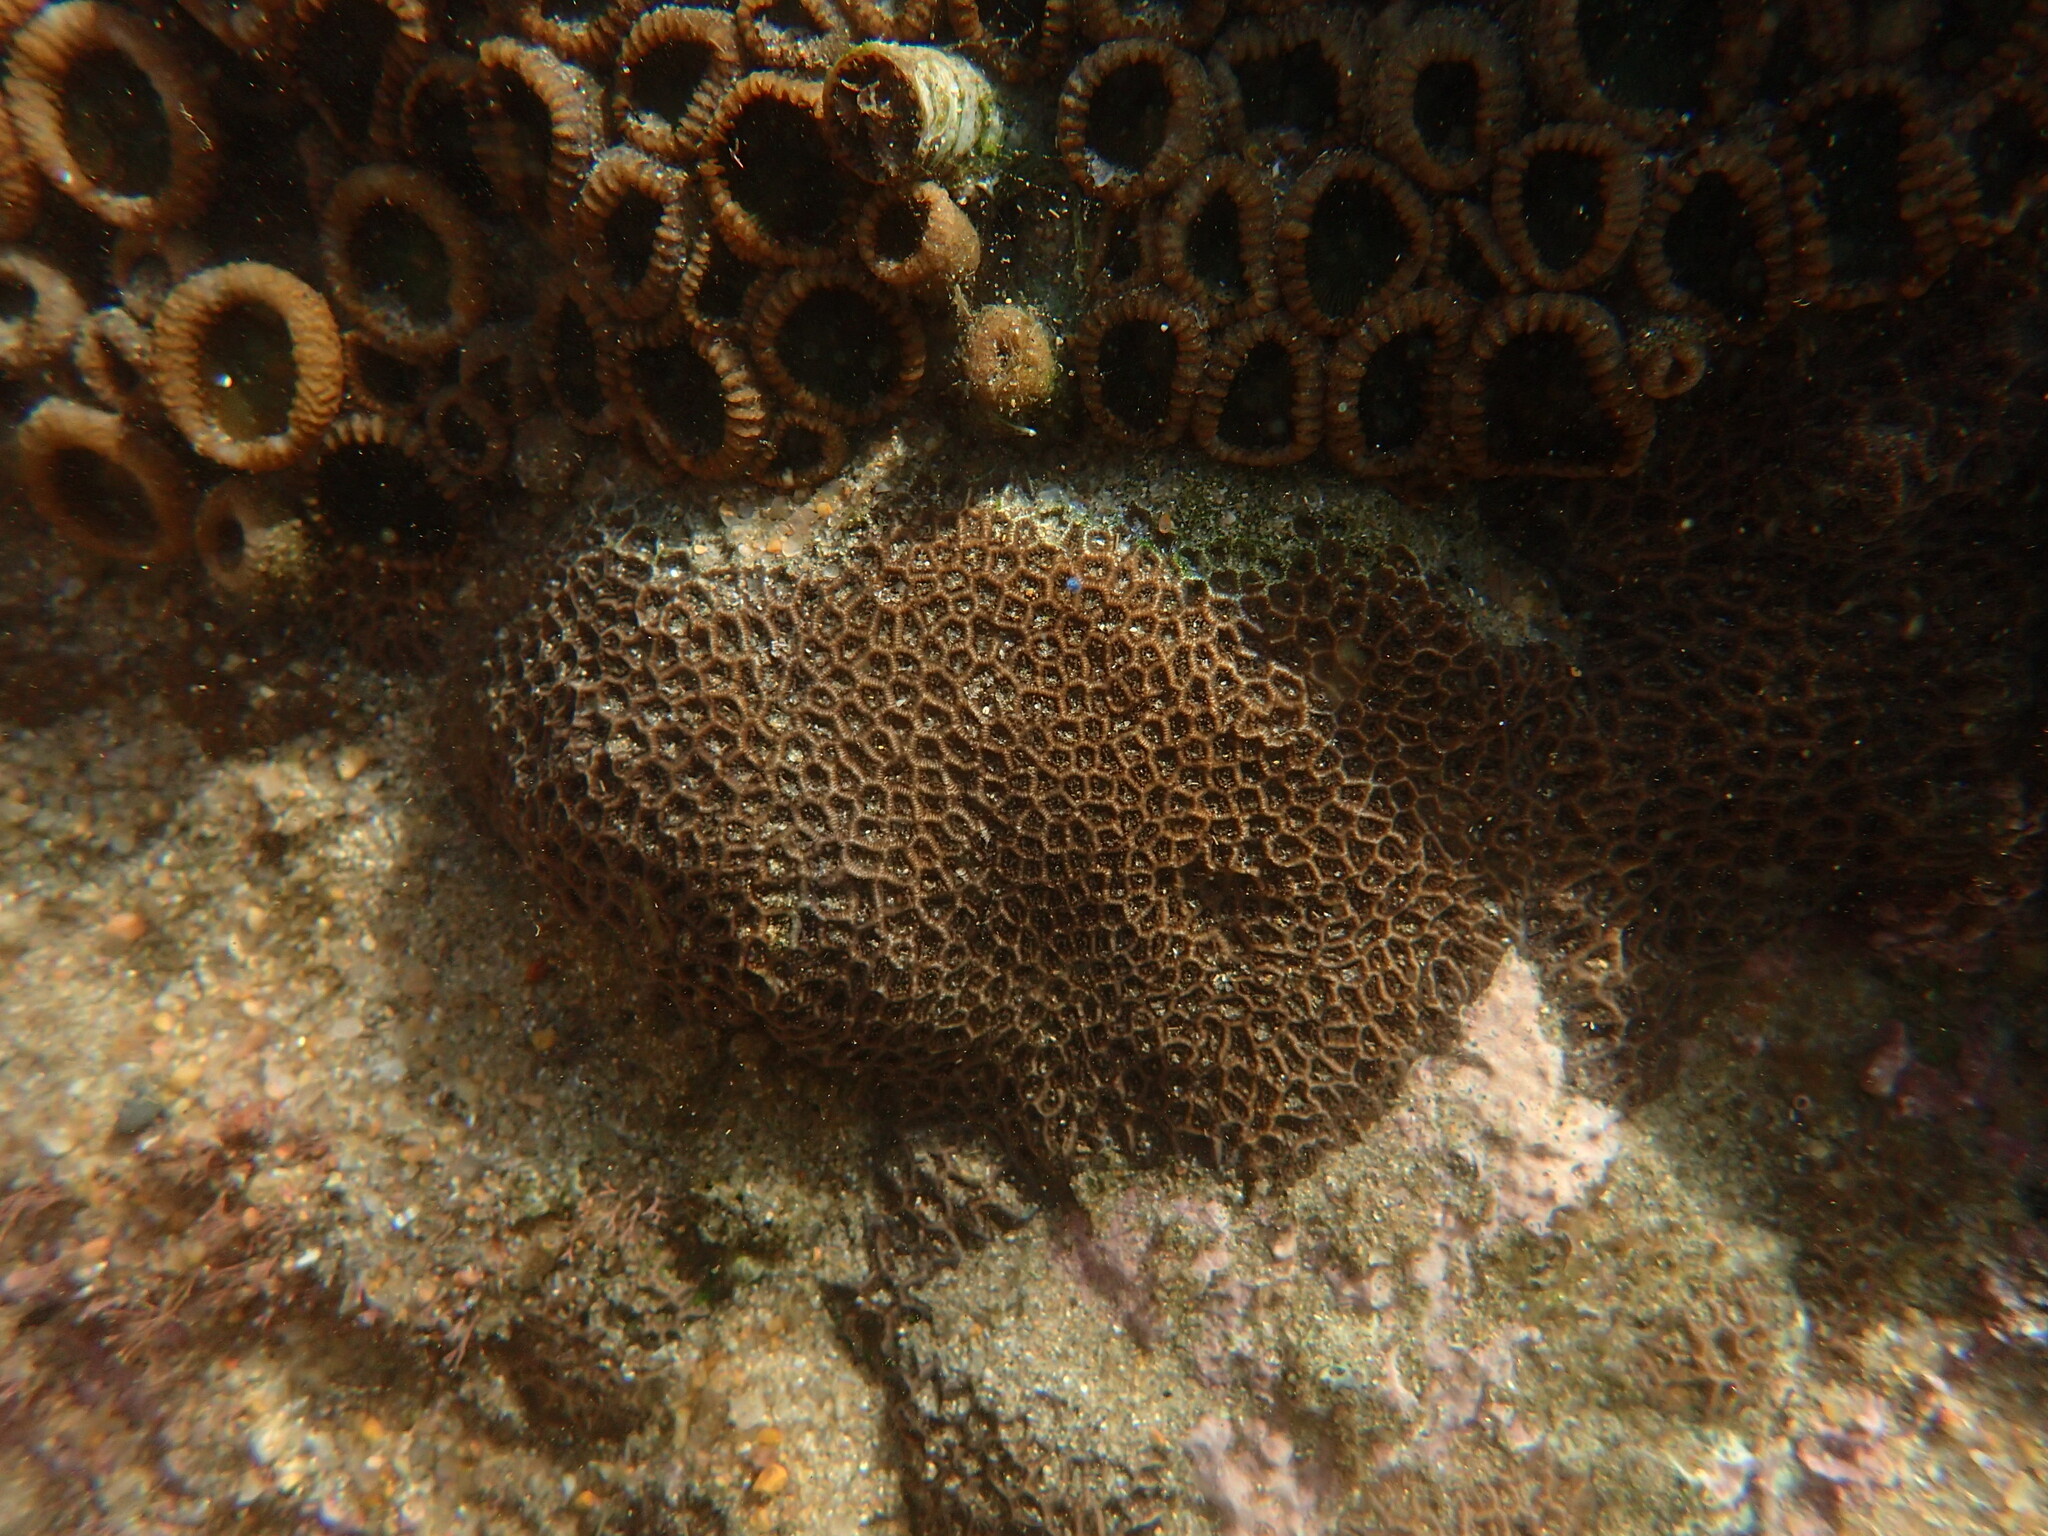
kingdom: Animalia
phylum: Cnidaria
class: Anthozoa
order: Scleractinia
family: Coscinaraeidae
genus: Anomastraea
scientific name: Anomastraea irregularis
